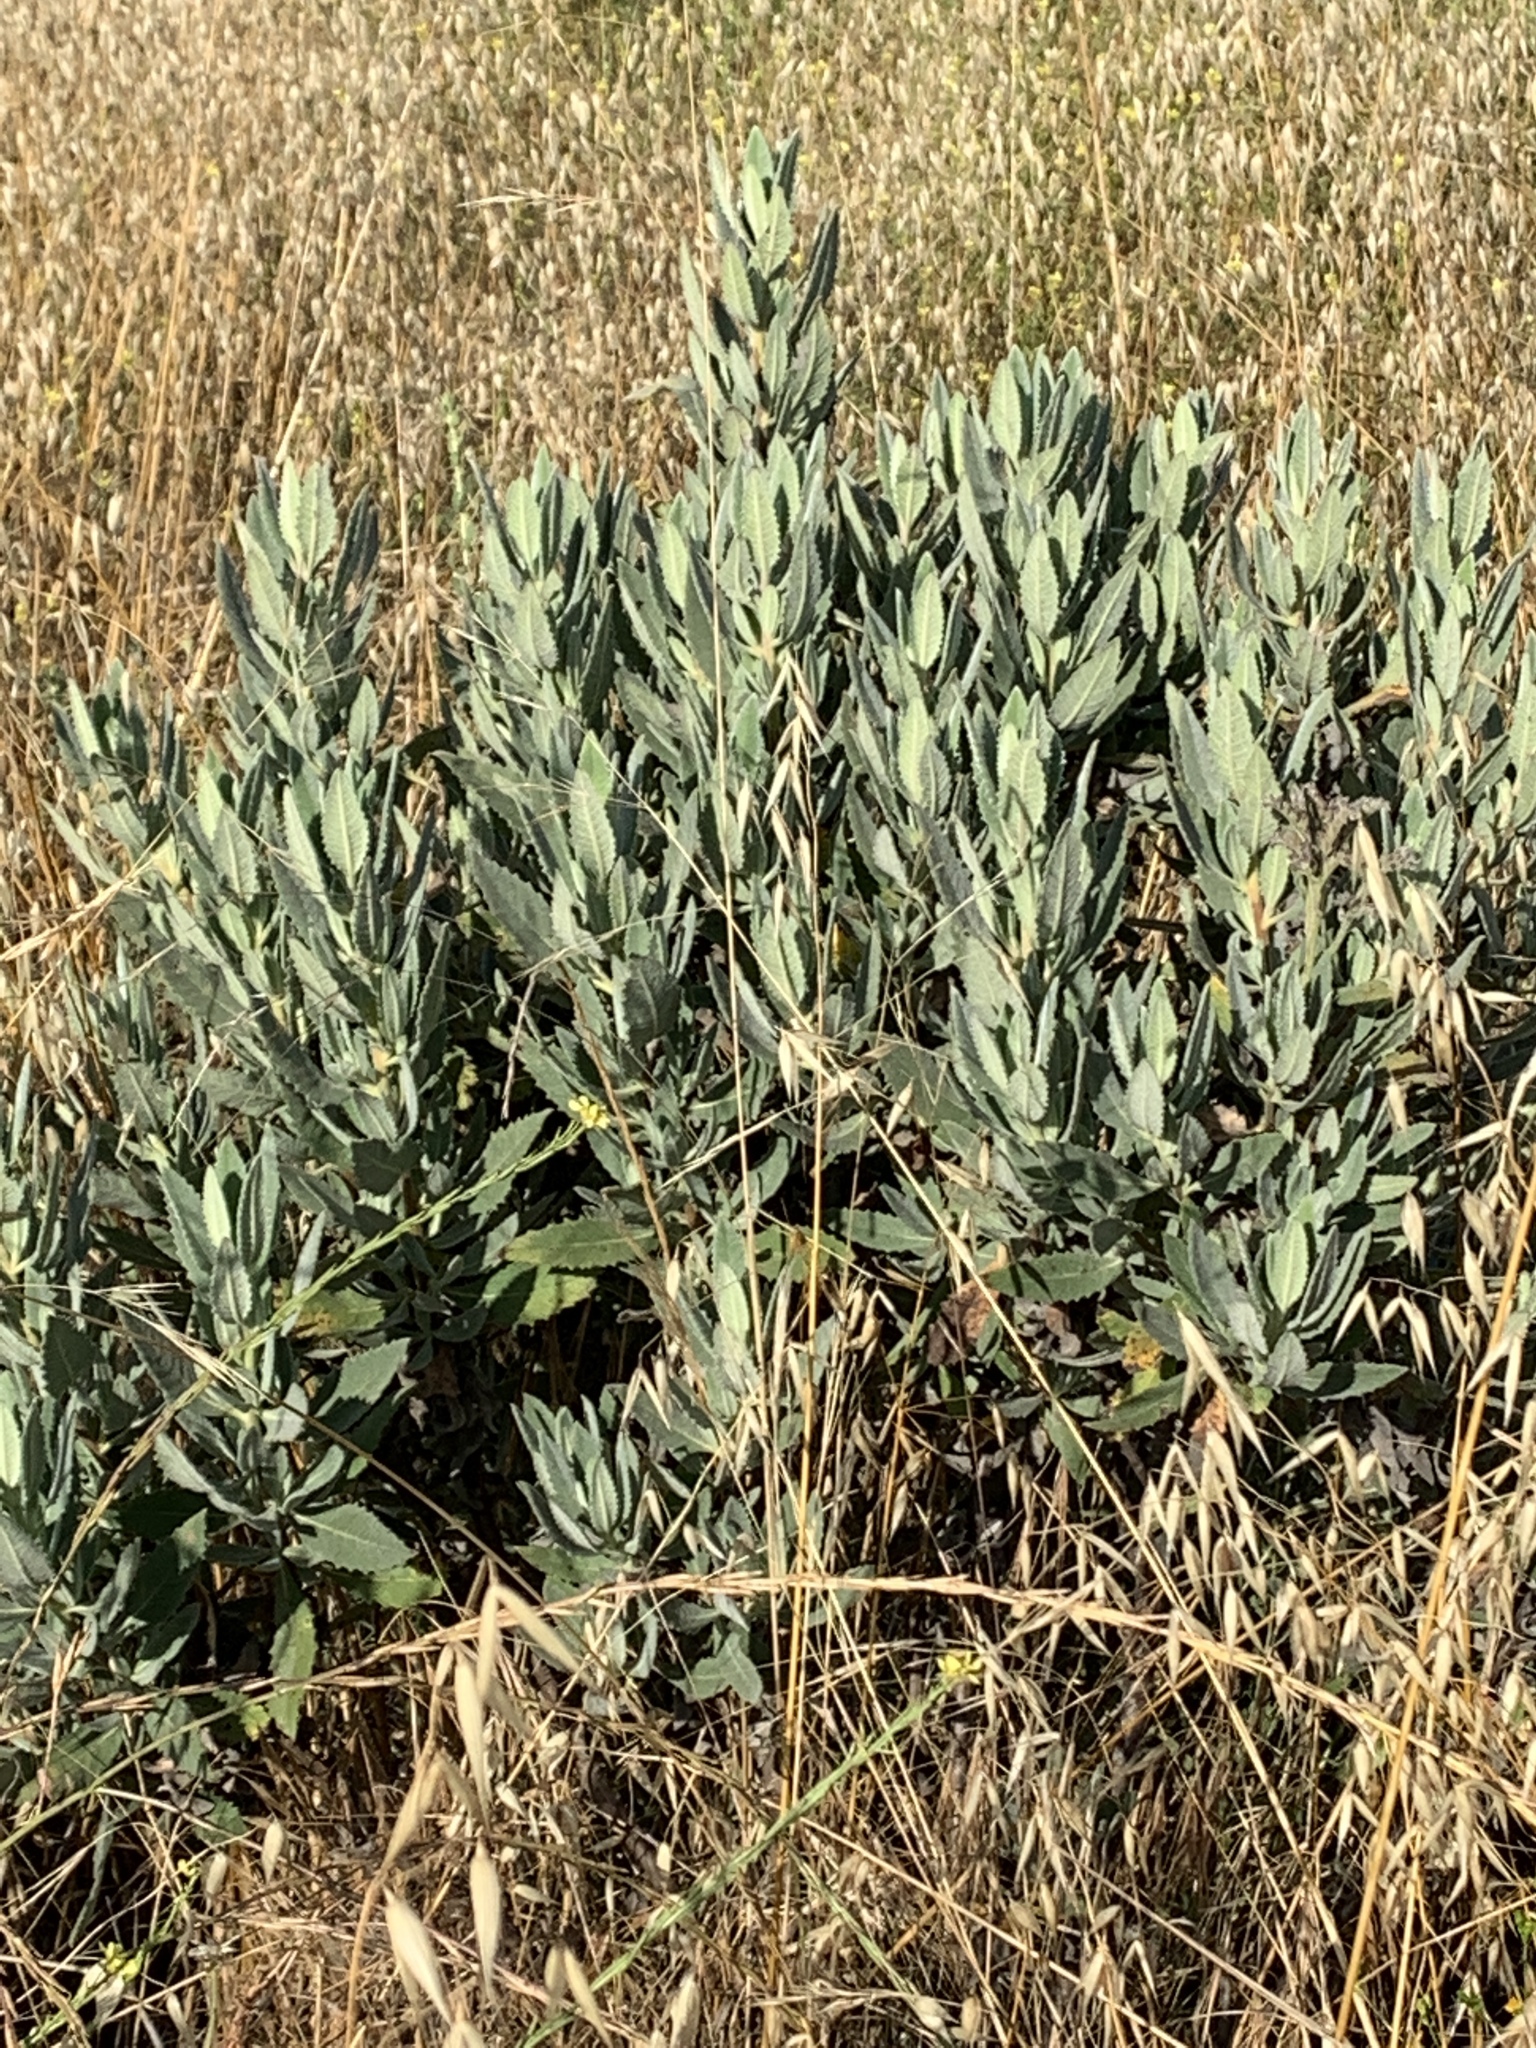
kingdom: Plantae
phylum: Tracheophyta
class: Magnoliopsida
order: Boraginales
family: Namaceae
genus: Eriodictyon
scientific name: Eriodictyon crassifolium
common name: Thick-leaf yerba-santa
